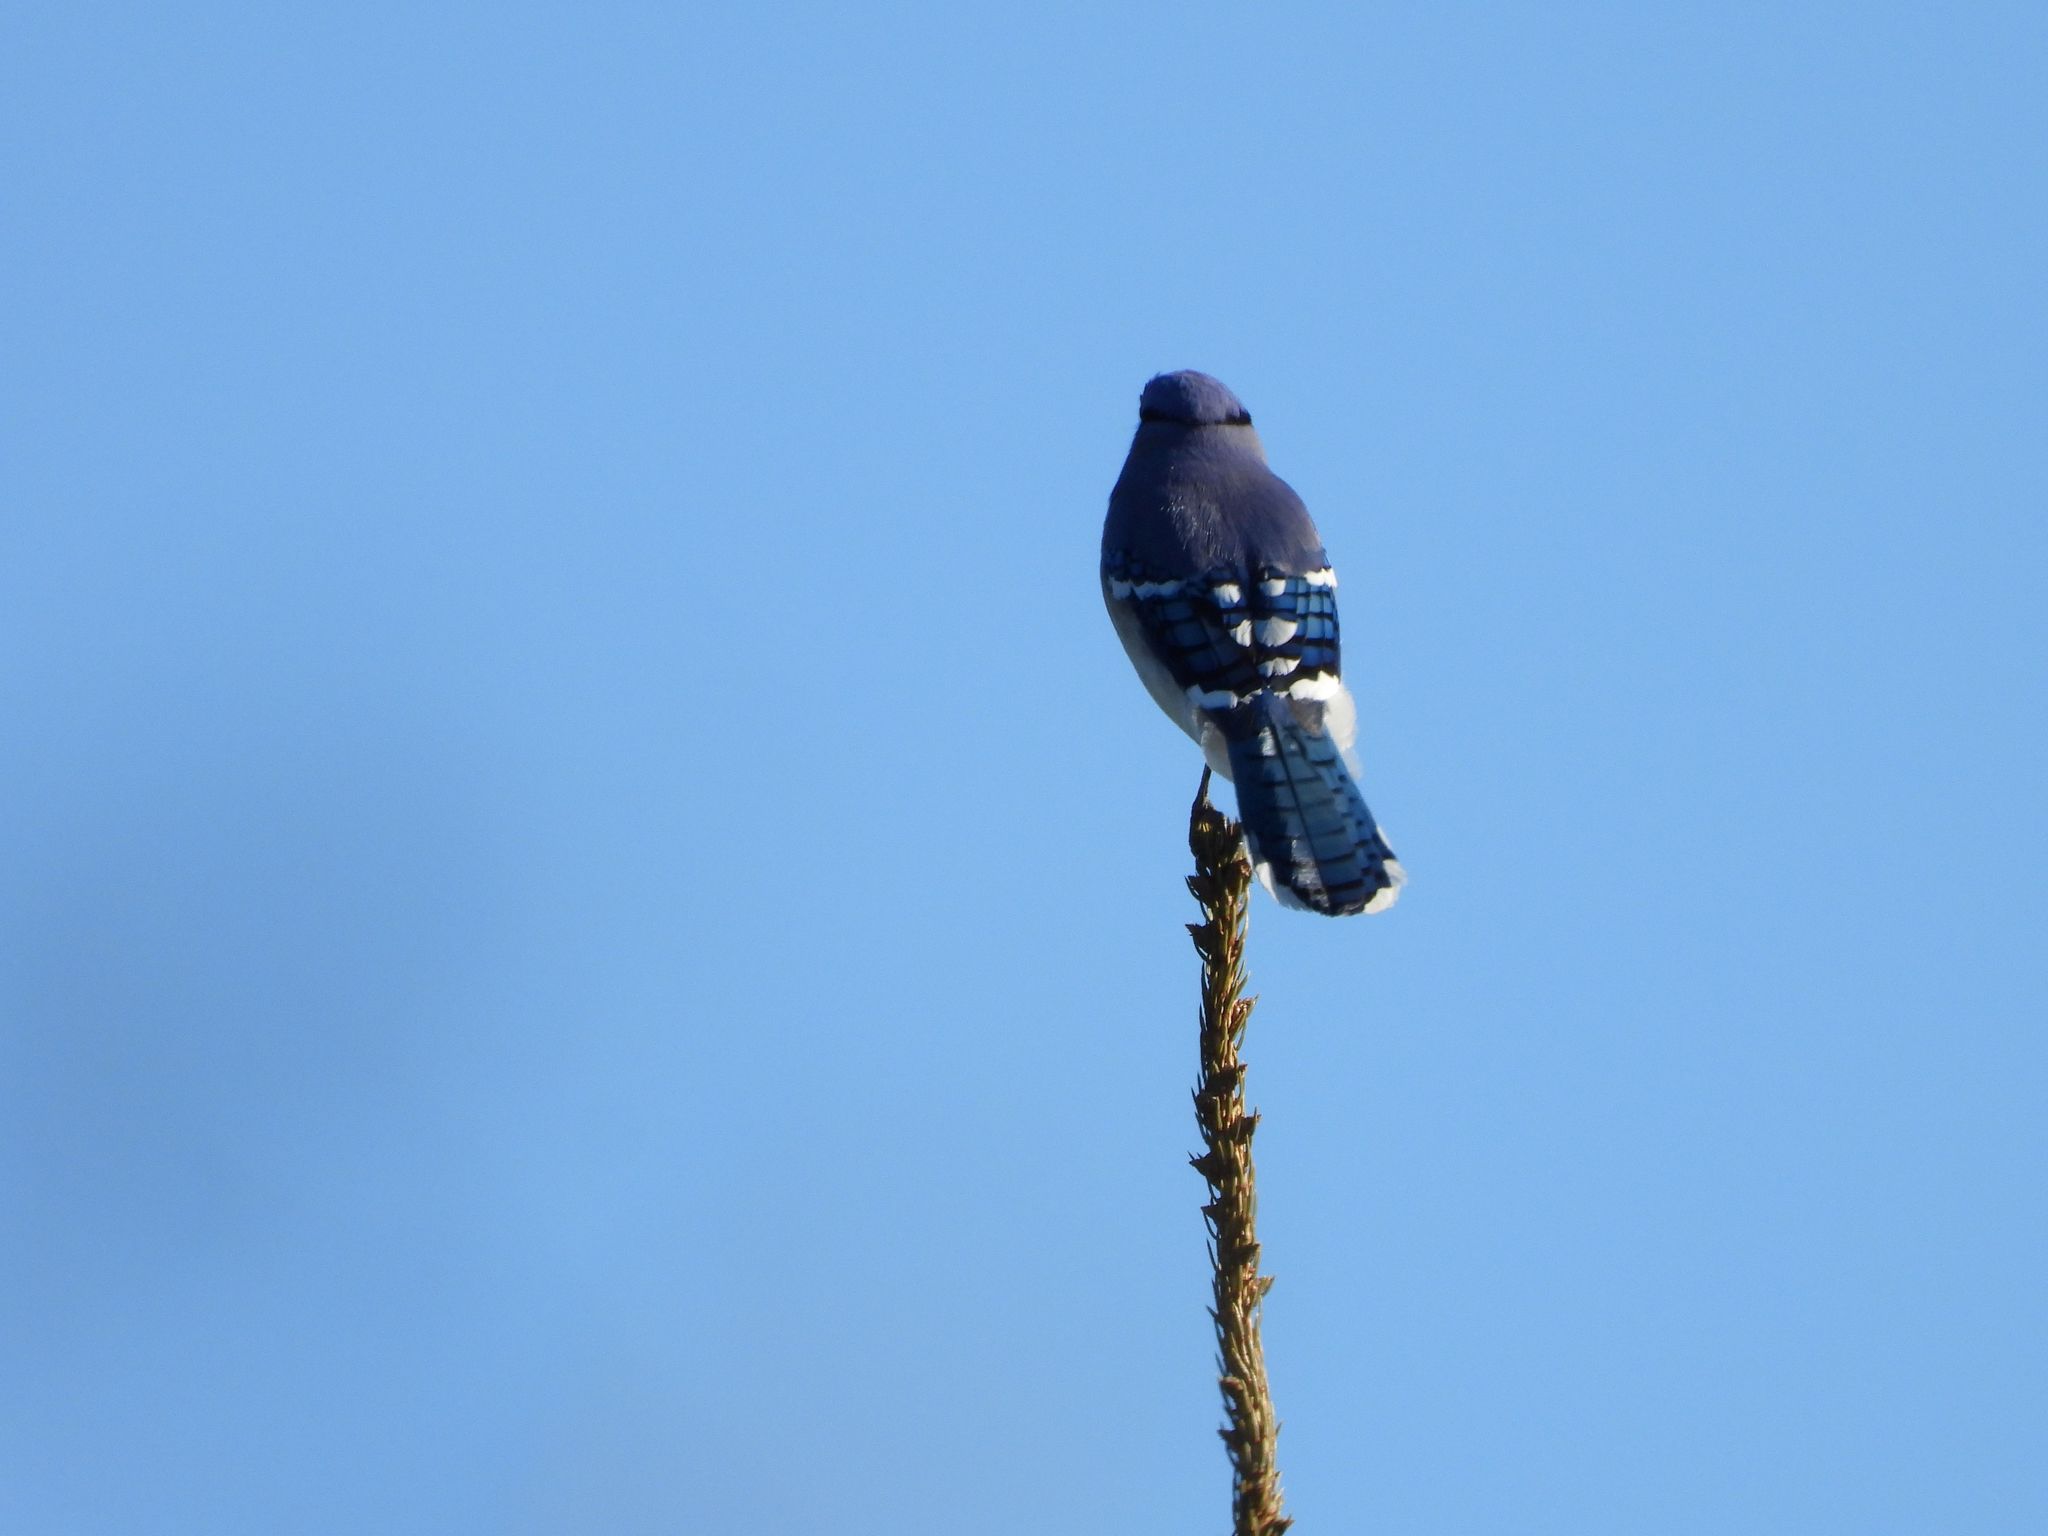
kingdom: Animalia
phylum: Chordata
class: Aves
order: Passeriformes
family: Corvidae
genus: Cyanocitta
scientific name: Cyanocitta cristata
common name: Blue jay
